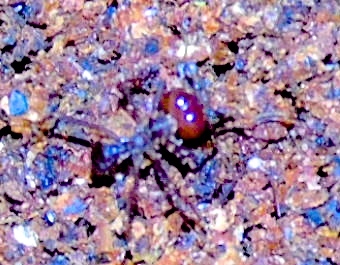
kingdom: Animalia
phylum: Arthropoda
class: Insecta
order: Hymenoptera
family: Formicidae
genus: Atta
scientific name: Atta mexicana
